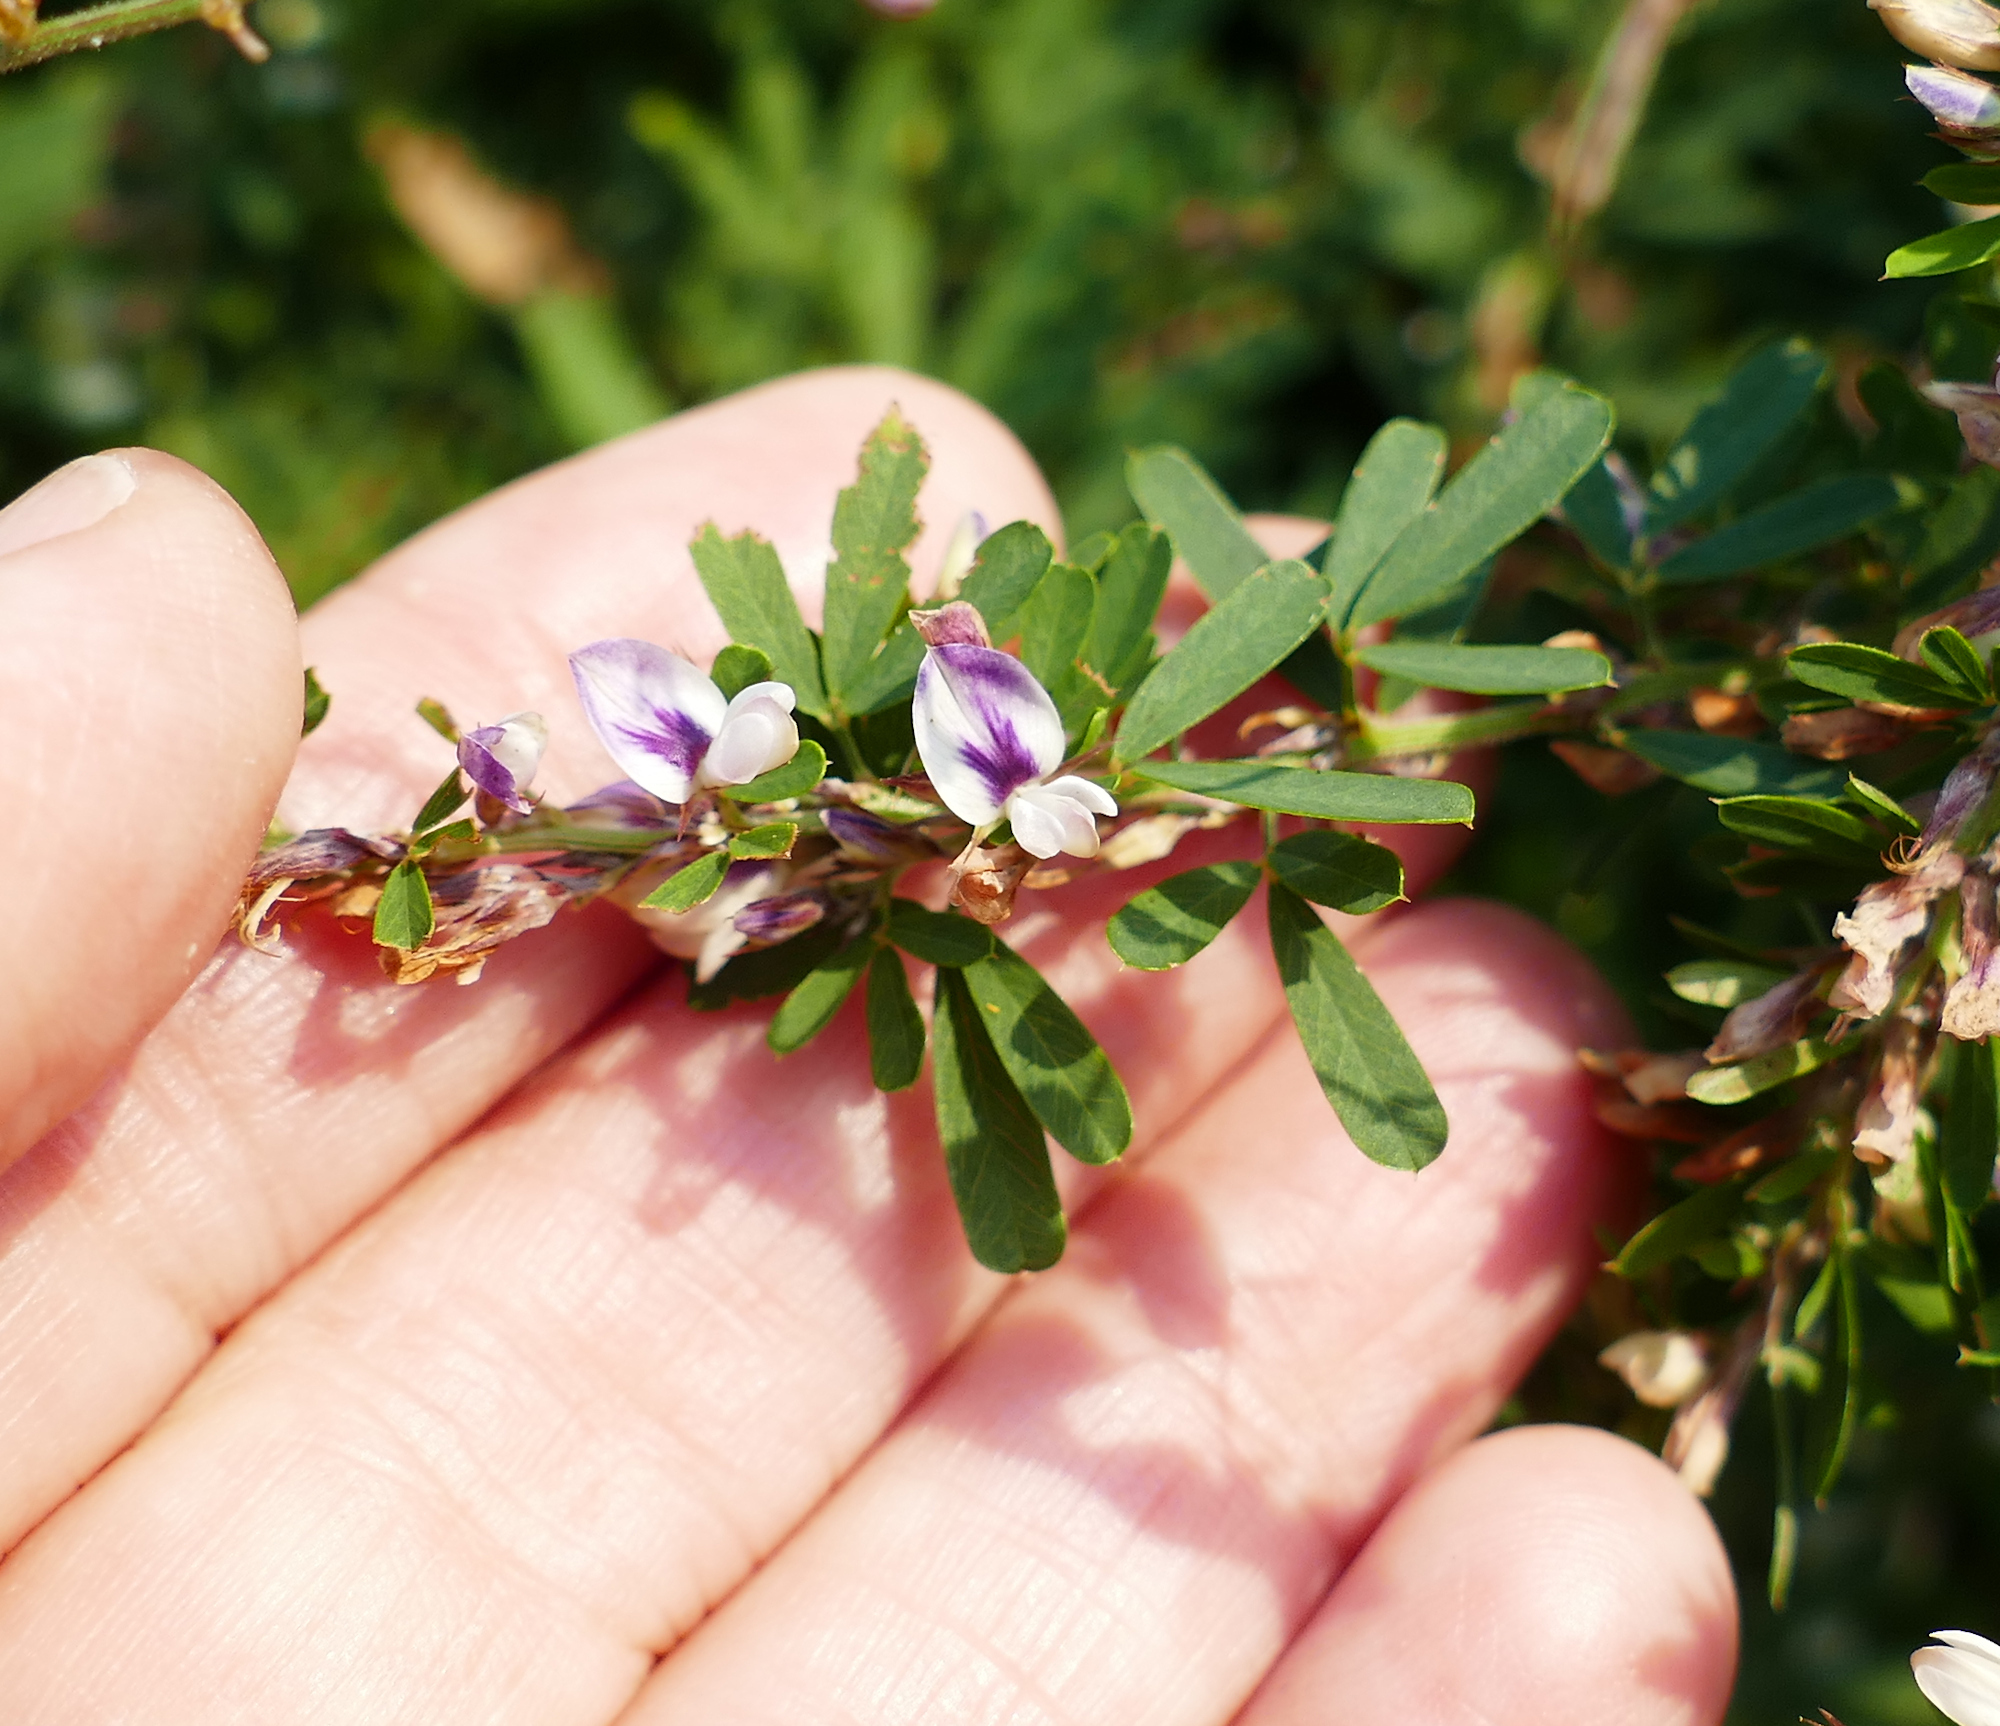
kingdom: Plantae
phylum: Tracheophyta
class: Magnoliopsida
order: Fabales
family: Fabaceae
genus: Lespedeza
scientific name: Lespedeza cuneata
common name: Chinese bush-clover
